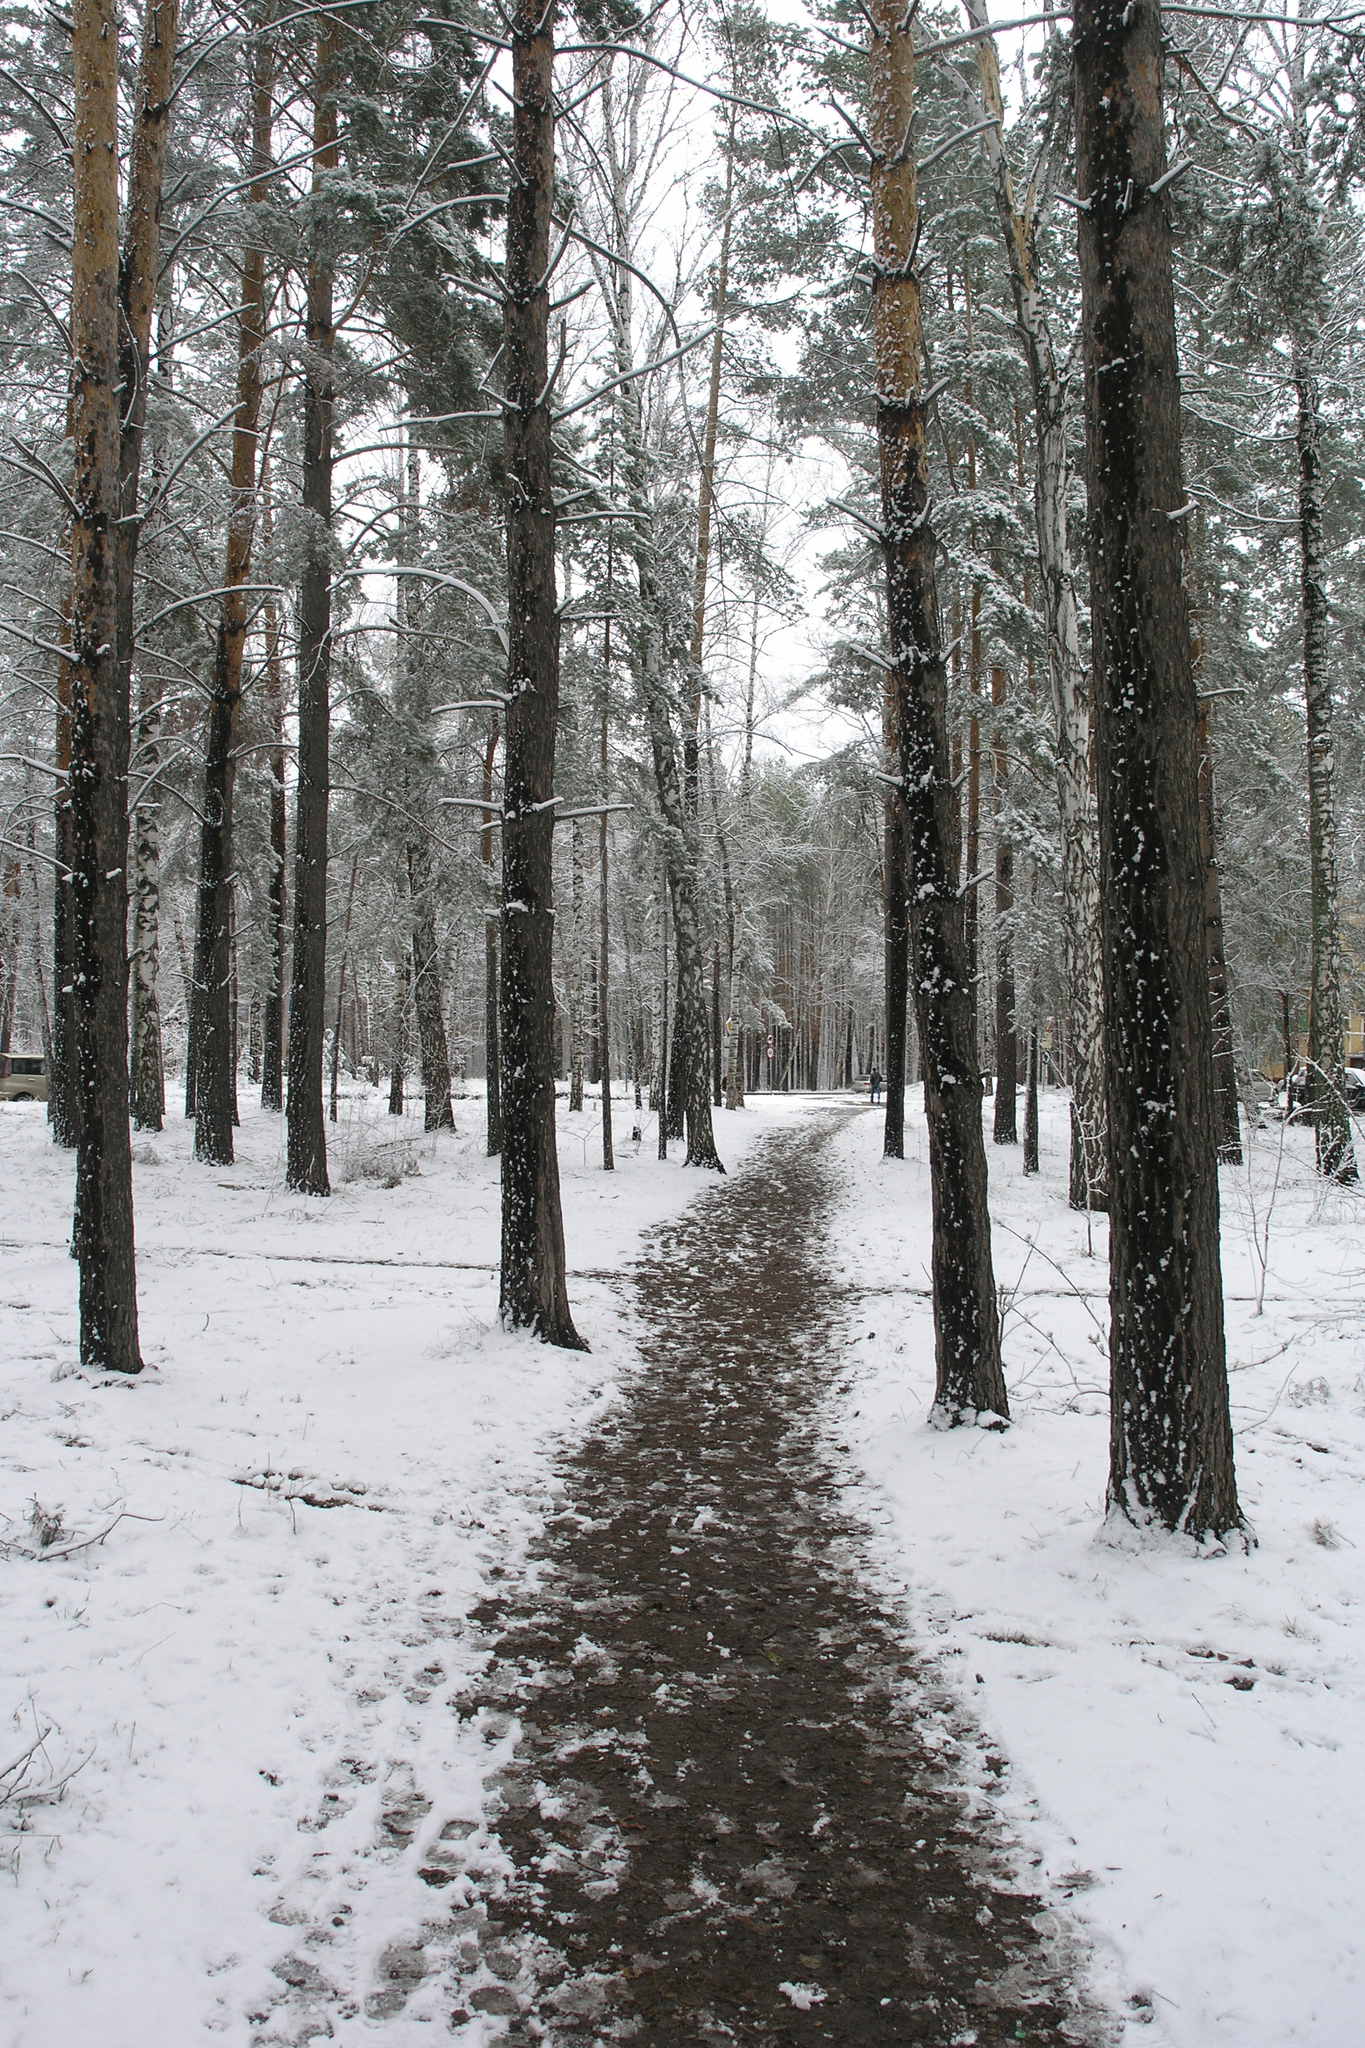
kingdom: Plantae
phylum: Tracheophyta
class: Pinopsida
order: Pinales
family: Pinaceae
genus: Pinus
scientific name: Pinus sylvestris
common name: Scots pine
